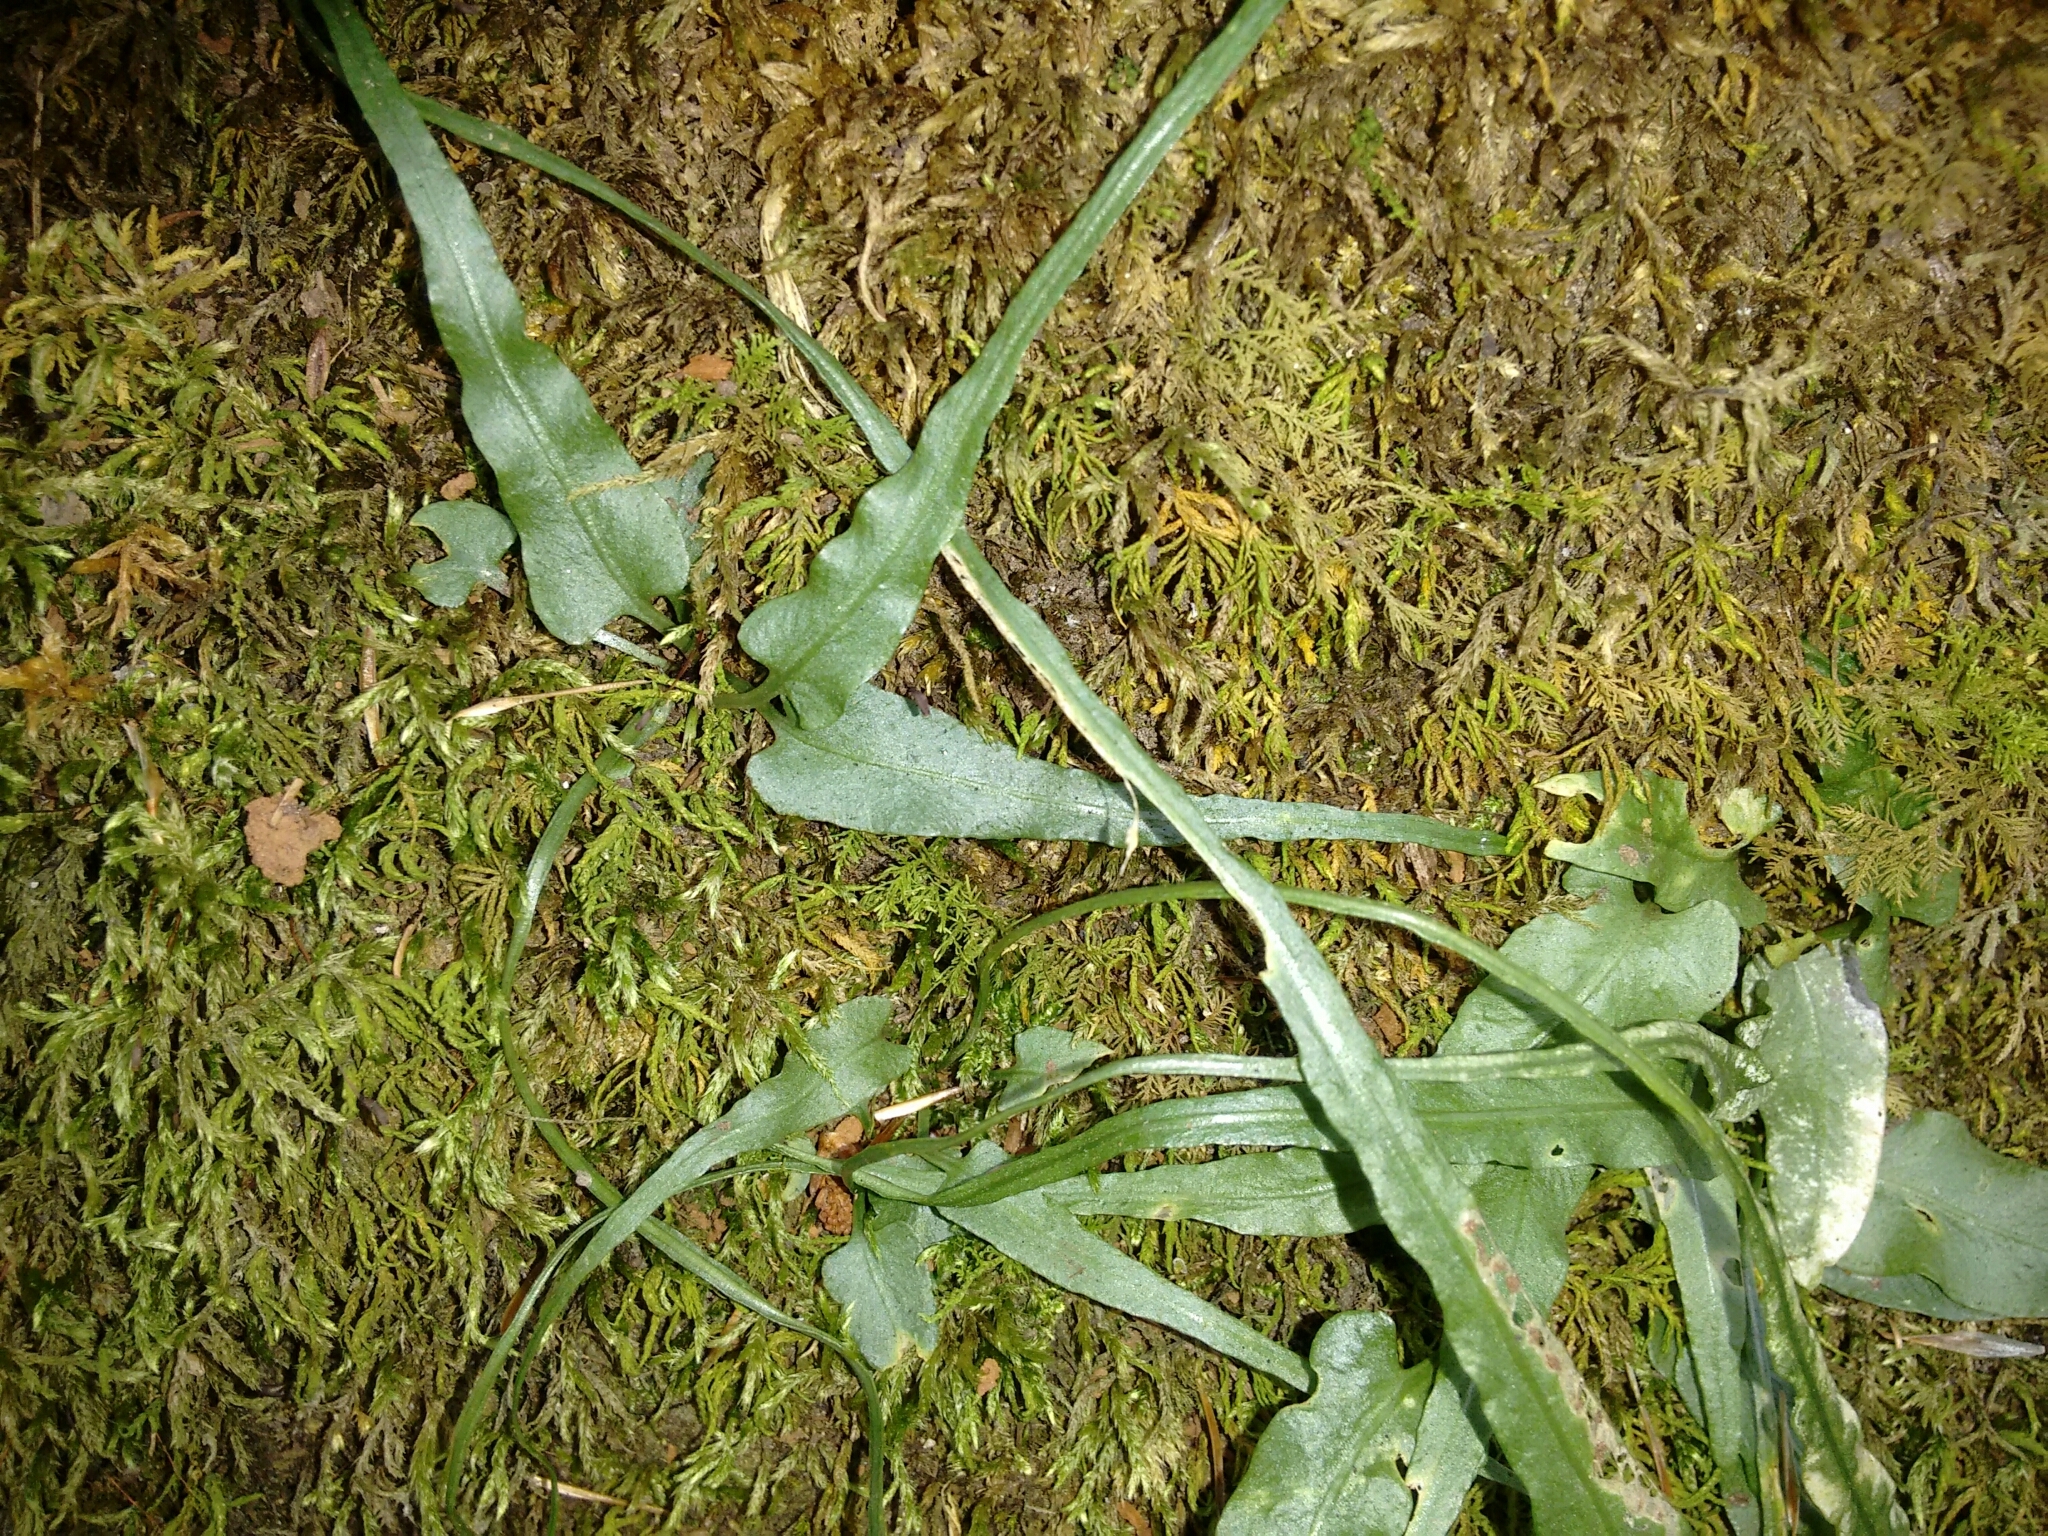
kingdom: Plantae
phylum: Tracheophyta
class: Polypodiopsida
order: Polypodiales
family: Aspleniaceae
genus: Asplenium
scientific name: Asplenium rhizophyllum
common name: Walking fern
